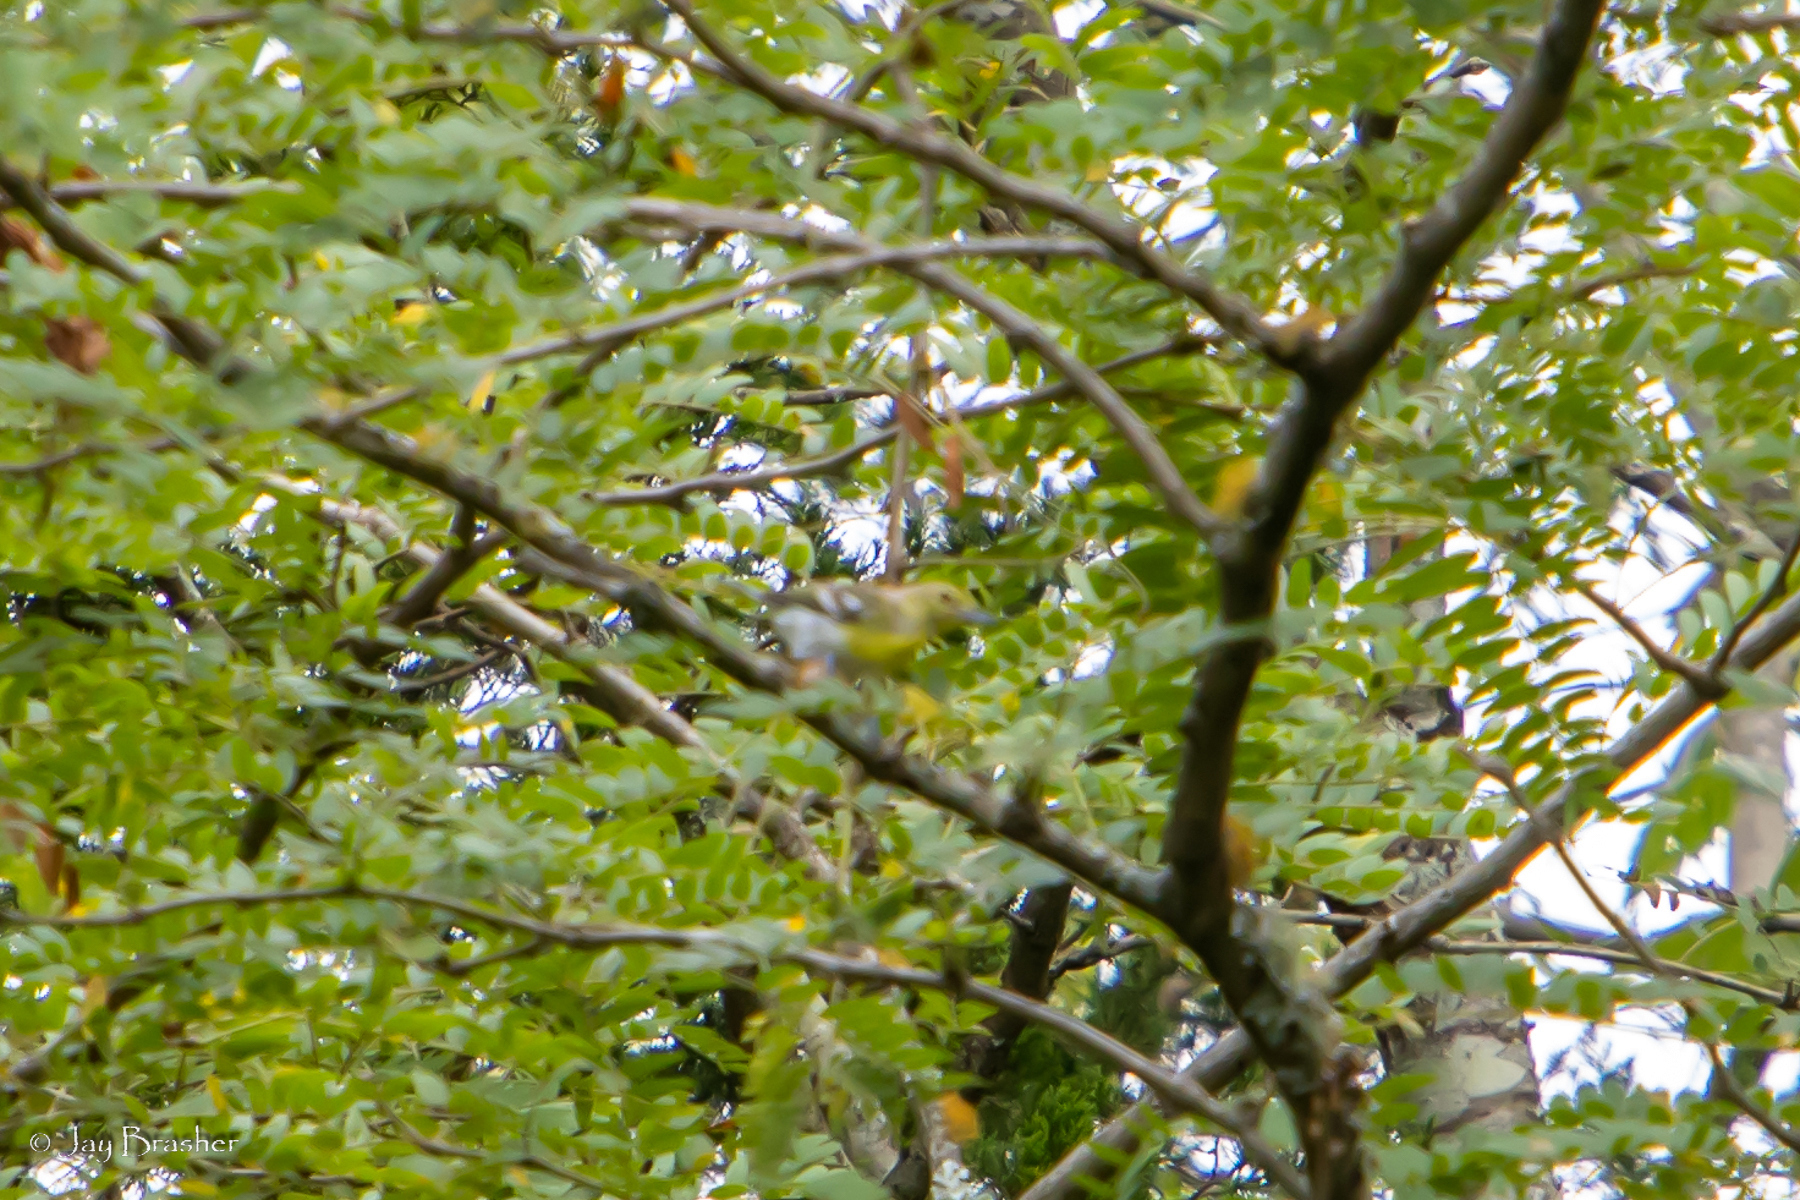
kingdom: Animalia
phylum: Chordata
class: Aves
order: Passeriformes
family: Parulidae
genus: Setophaga
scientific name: Setophaga pinus
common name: Pine warbler
